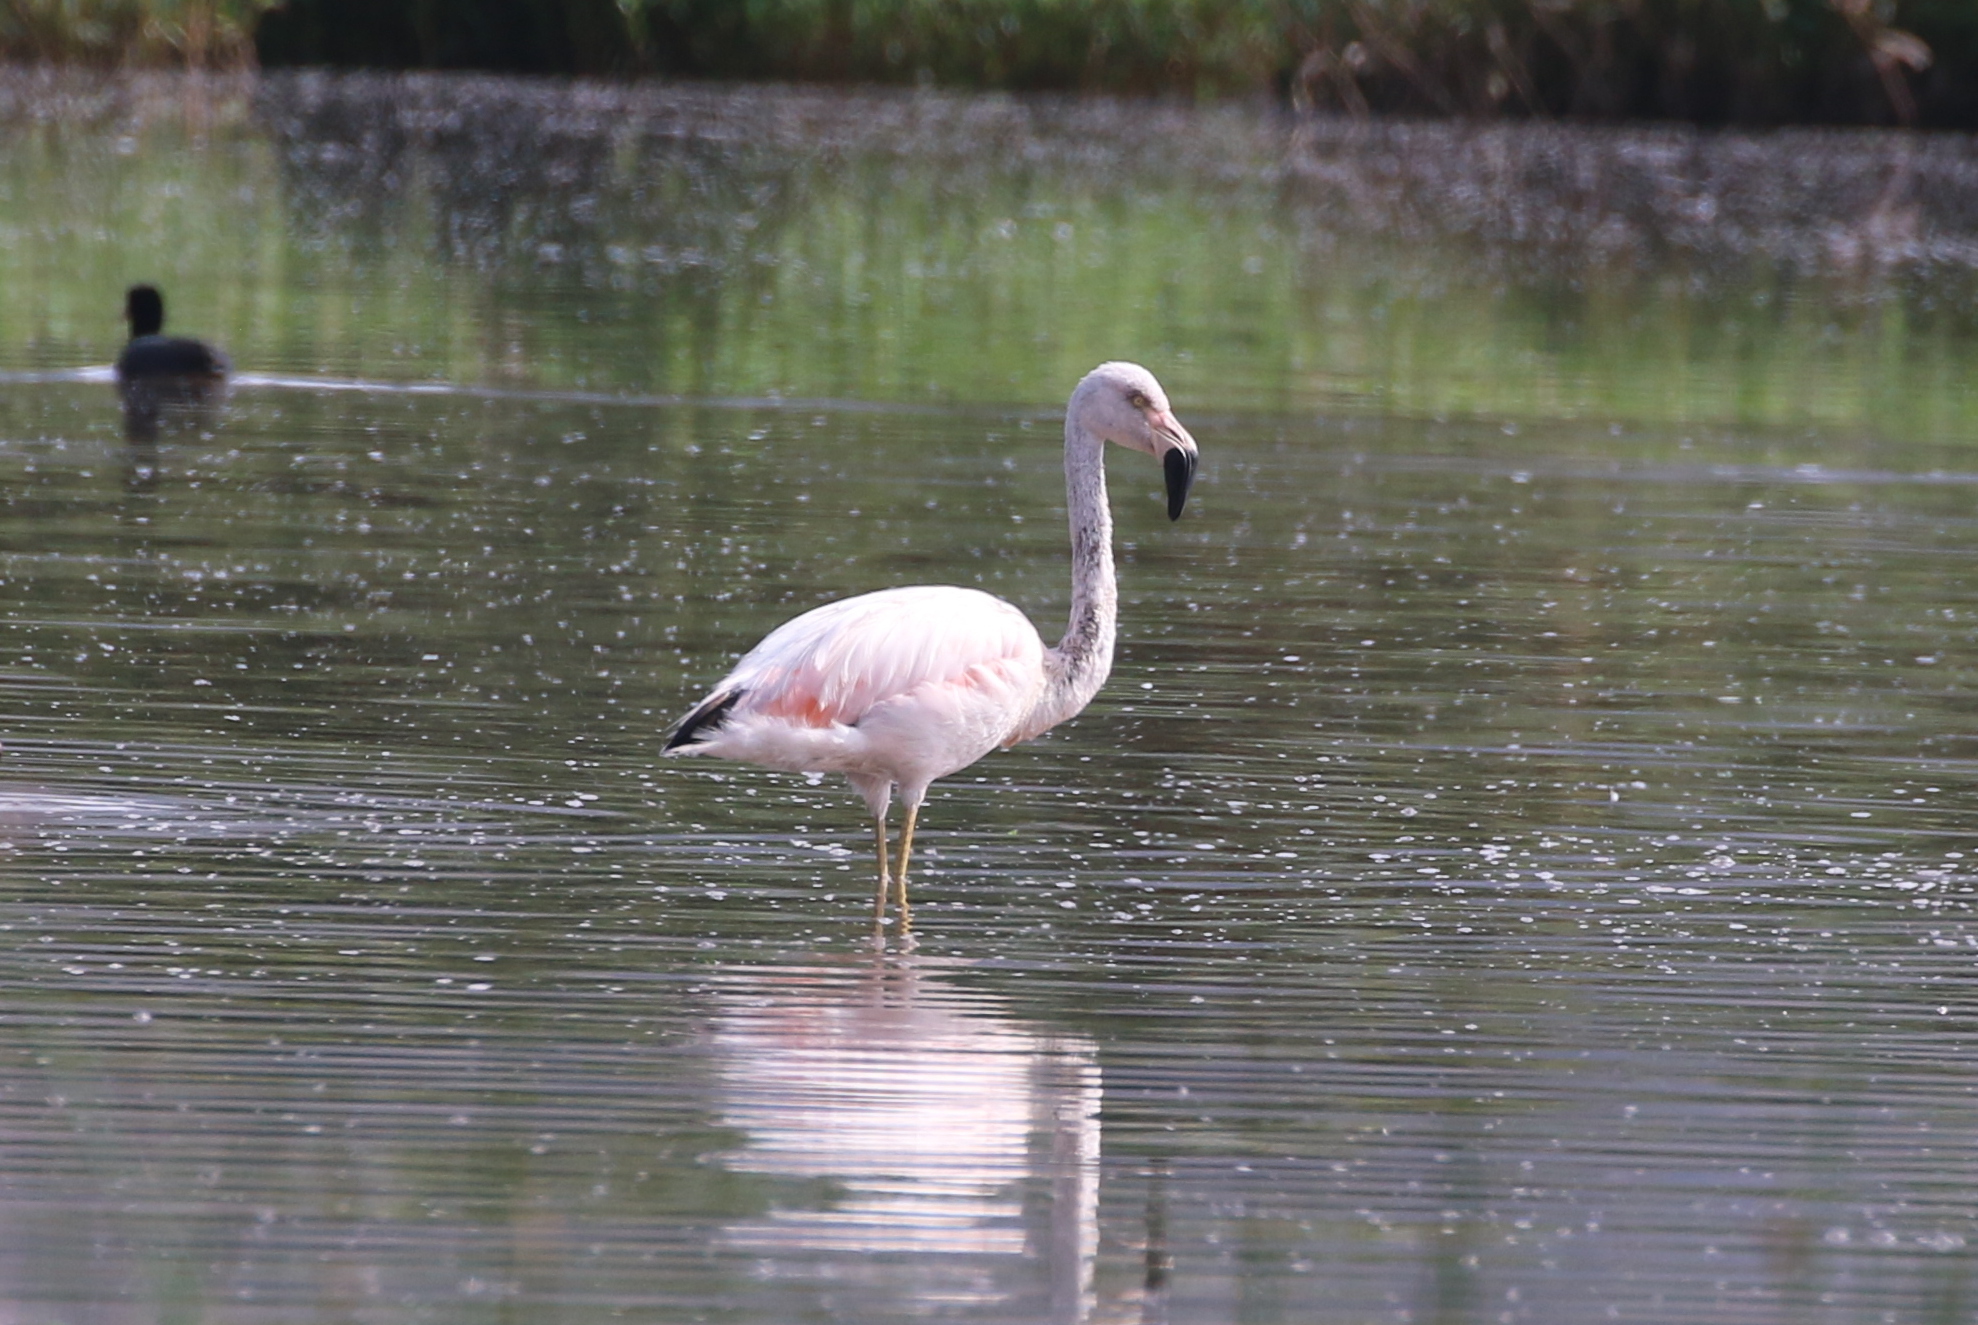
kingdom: Animalia
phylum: Chordata
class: Aves
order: Phoenicopteriformes
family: Phoenicopteridae
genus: Phoenicopterus
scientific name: Phoenicopterus chilensis
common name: Chilean flamingo
